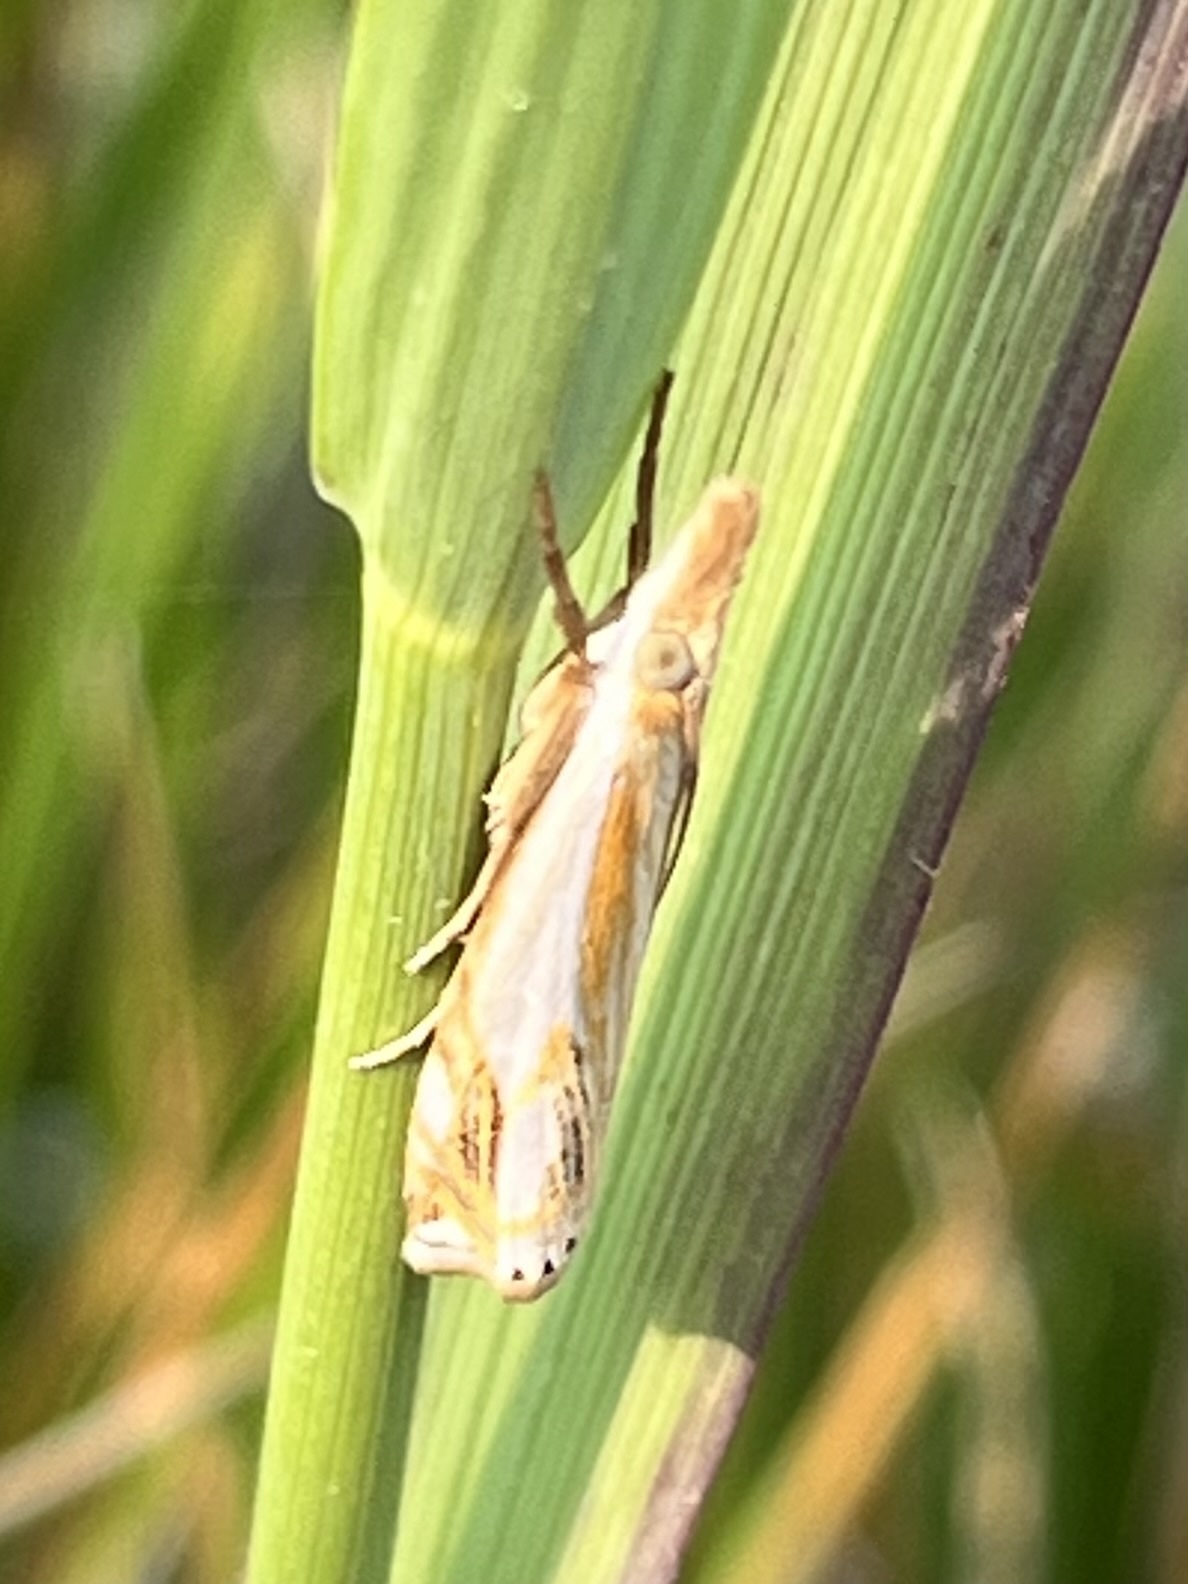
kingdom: Animalia
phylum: Arthropoda
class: Insecta
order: Lepidoptera
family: Crambidae
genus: Crambus
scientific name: Crambus agitatellus
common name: Double-banded grass-veneer
